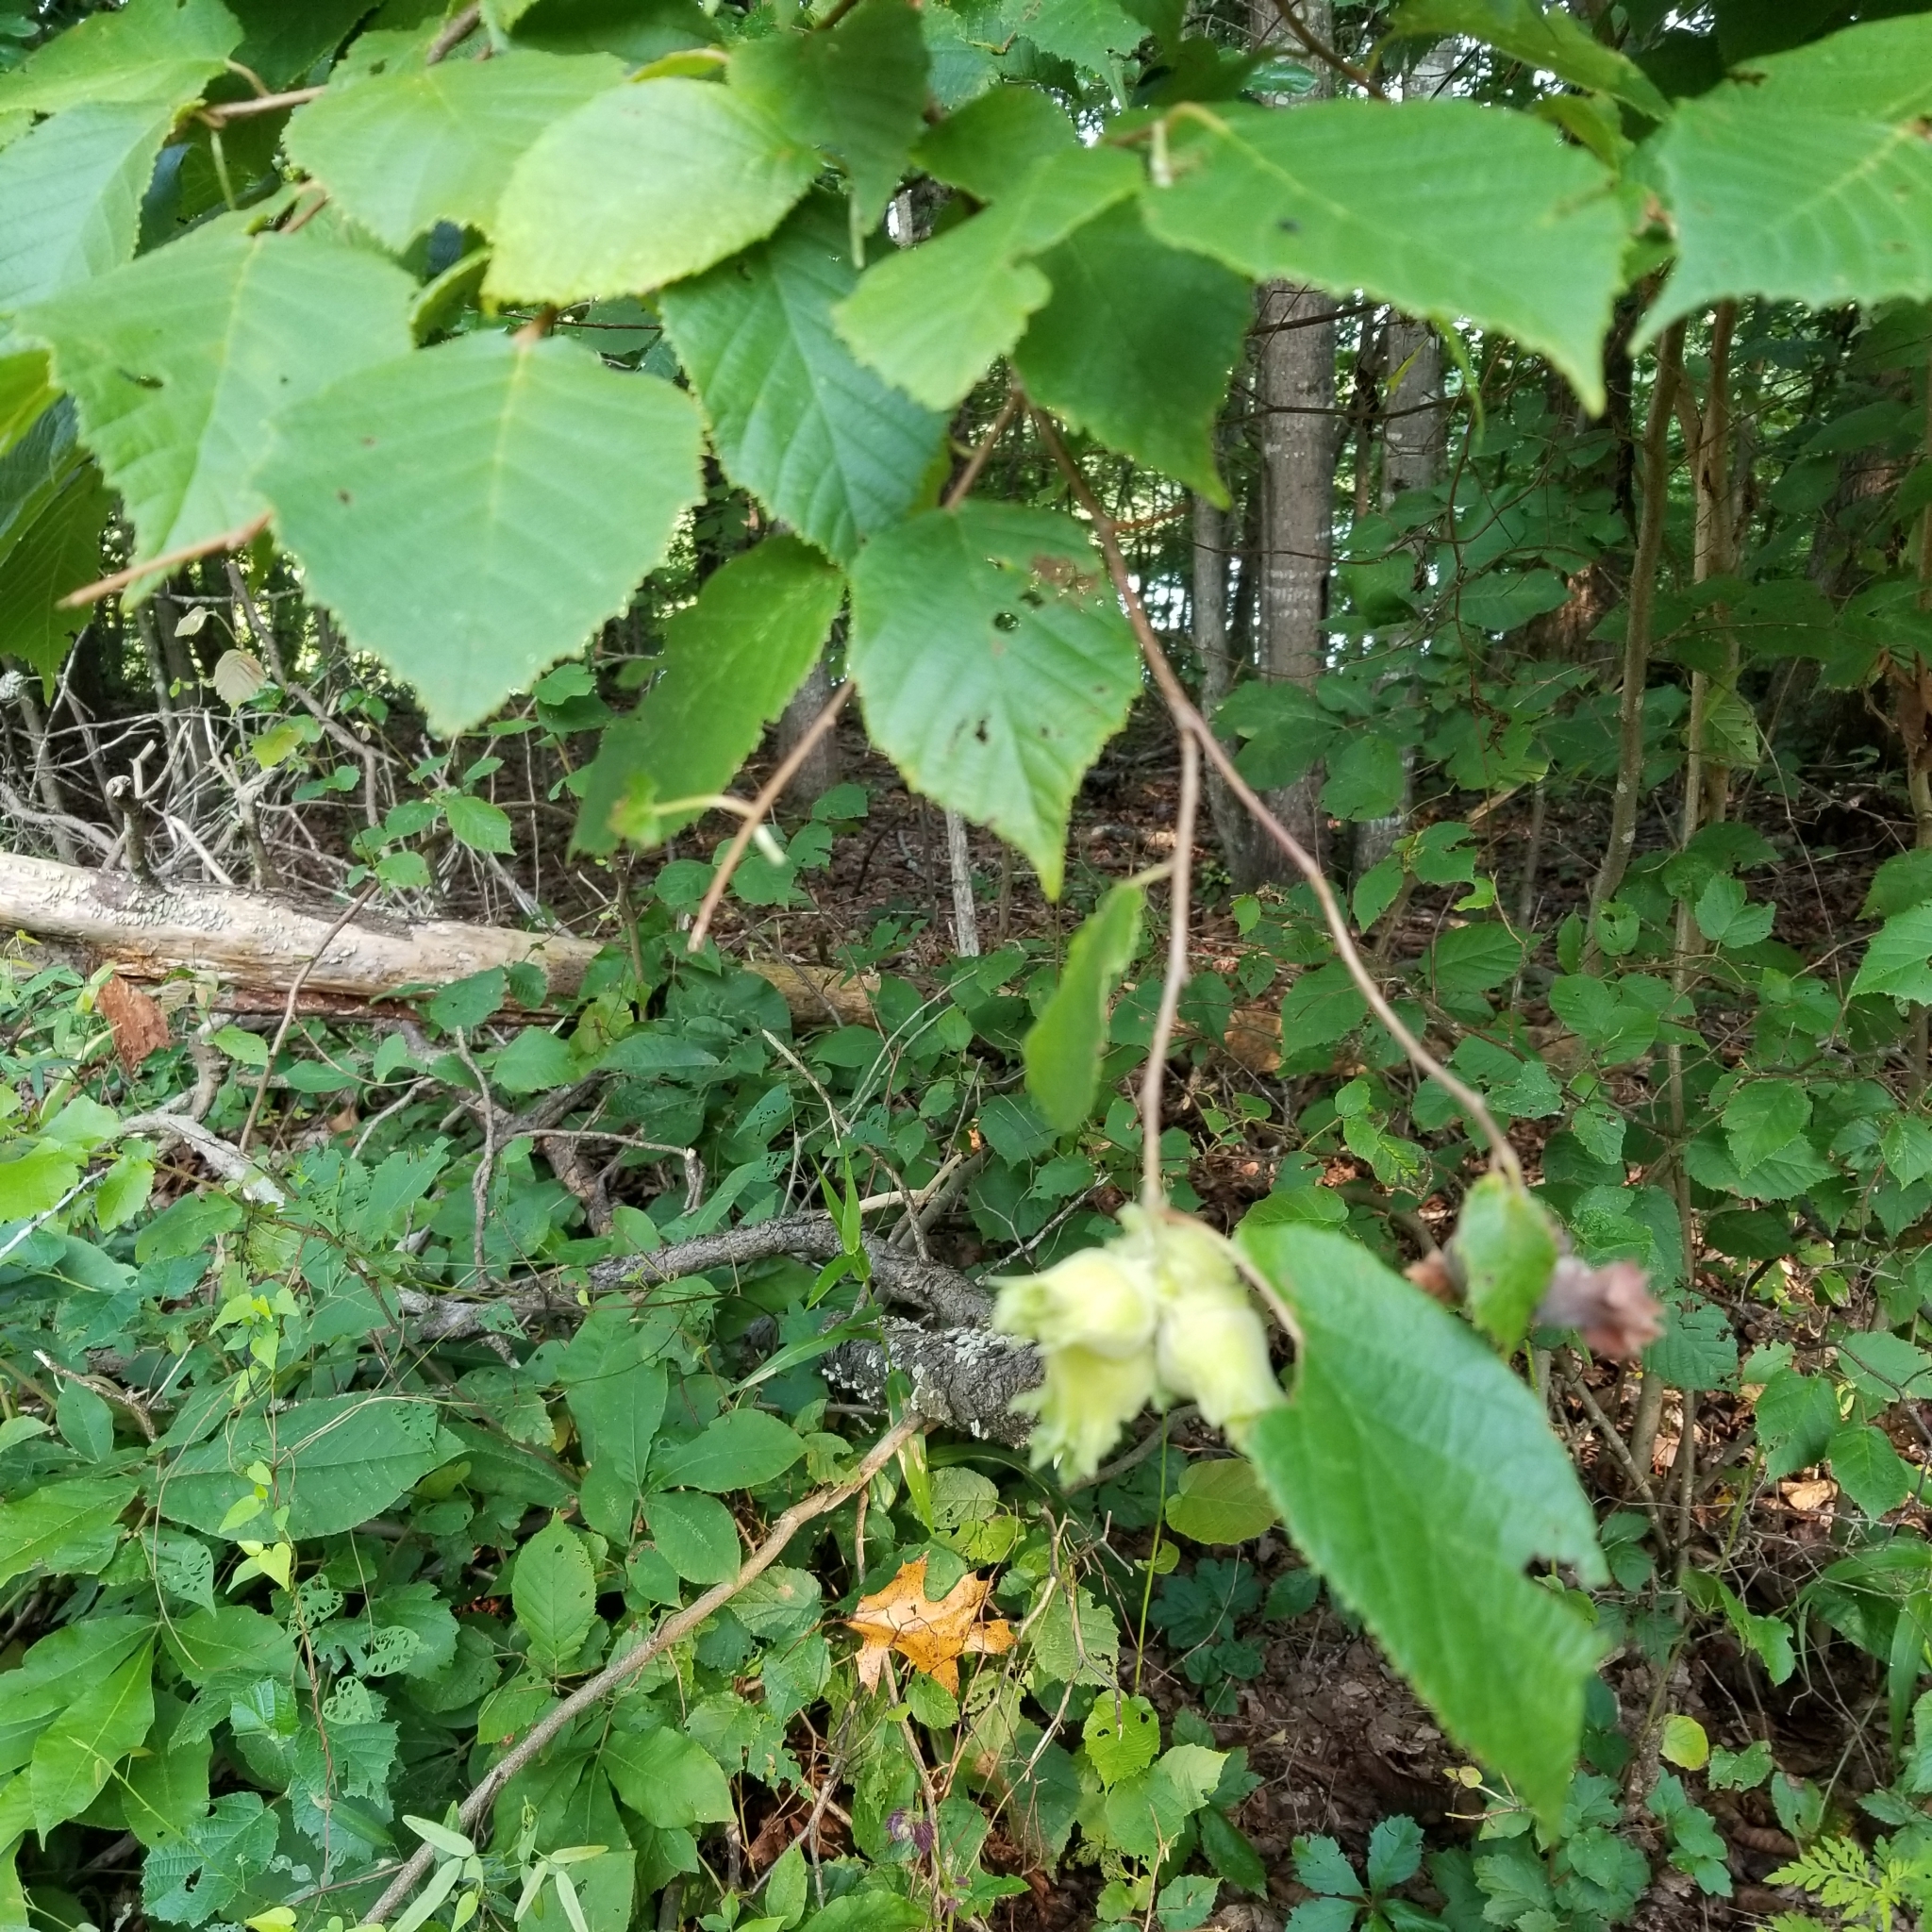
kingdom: Plantae
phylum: Tracheophyta
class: Magnoliopsida
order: Fagales
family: Betulaceae
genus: Corylus
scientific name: Corylus americana
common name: American hazel
